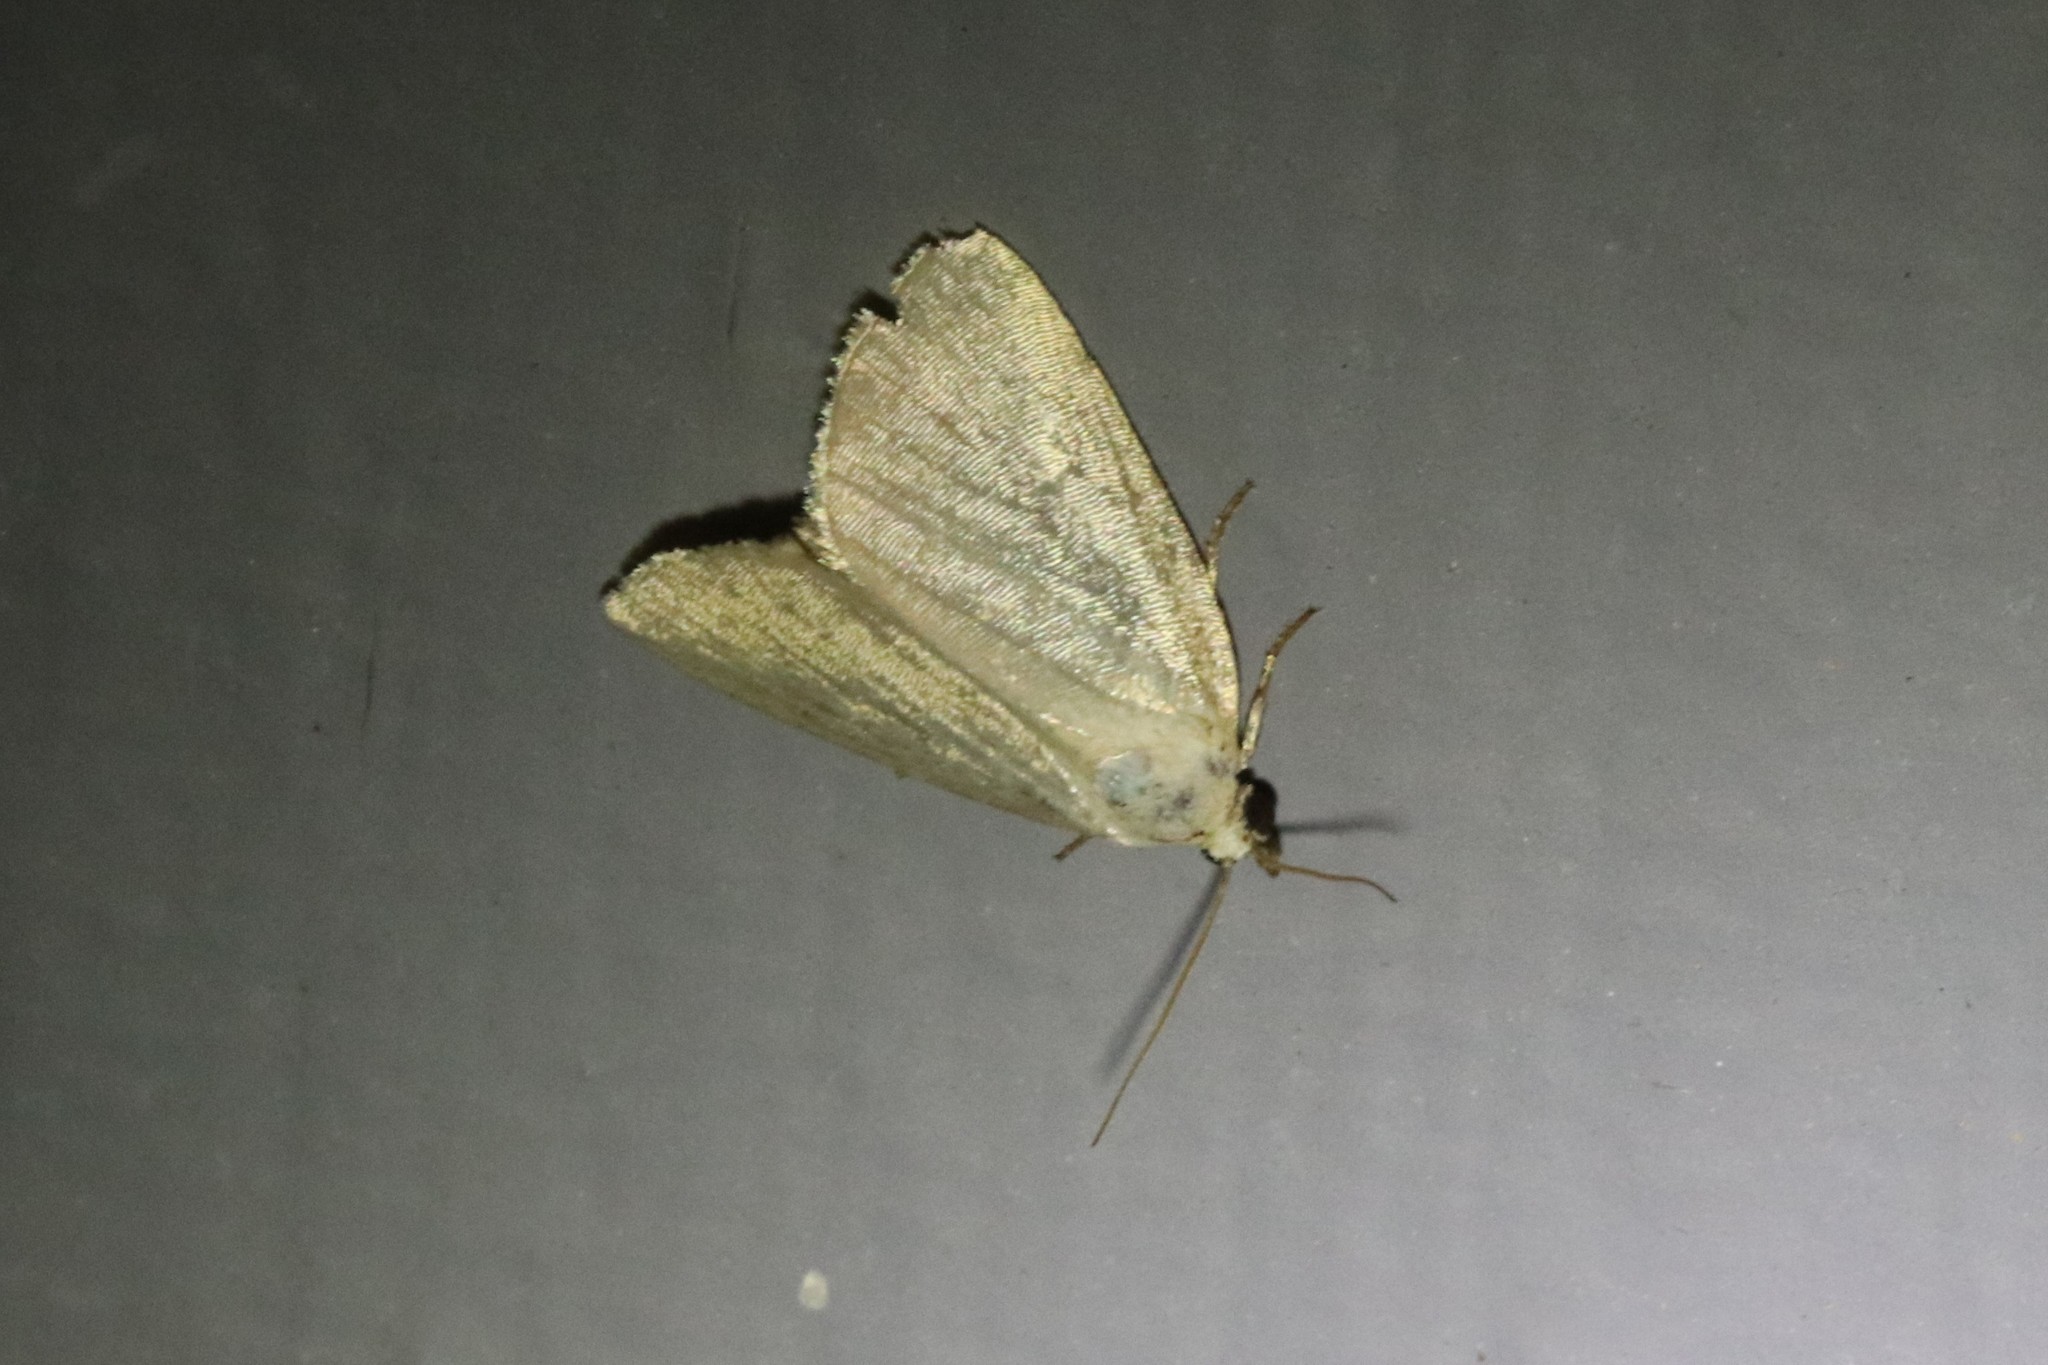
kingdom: Animalia
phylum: Arthropoda
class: Insecta
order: Lepidoptera
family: Noctuidae
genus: Protodeltote
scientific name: Protodeltote albidula
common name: Pale glyph
